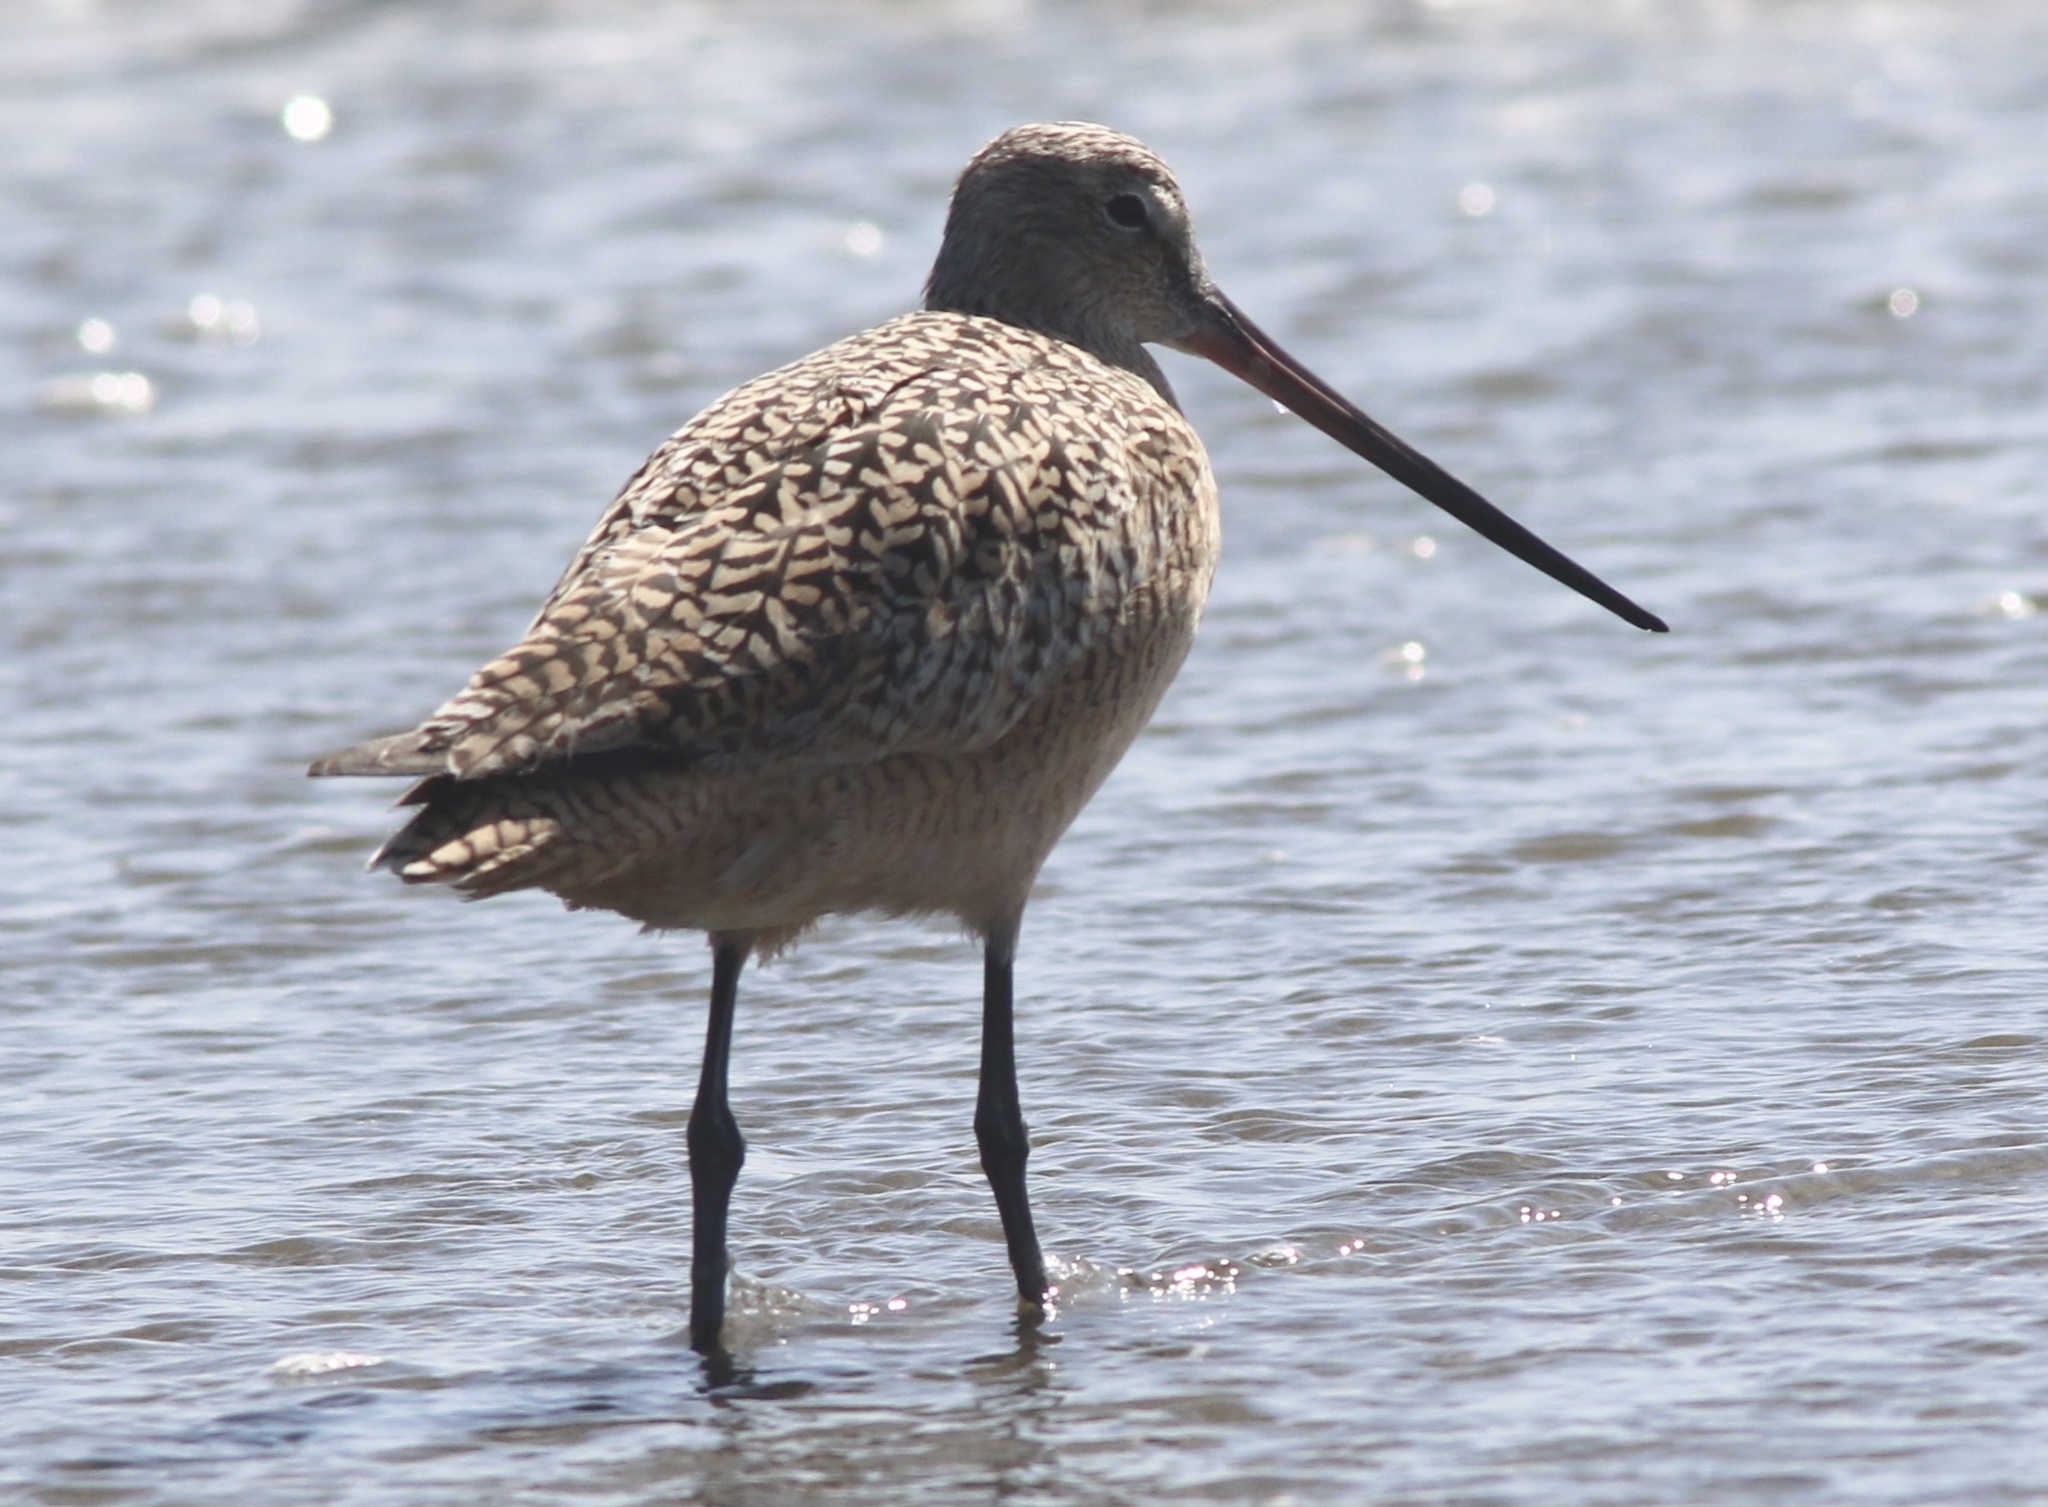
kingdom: Animalia
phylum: Chordata
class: Aves
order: Charadriiformes
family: Scolopacidae
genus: Limosa
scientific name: Limosa fedoa
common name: Marbled godwit
